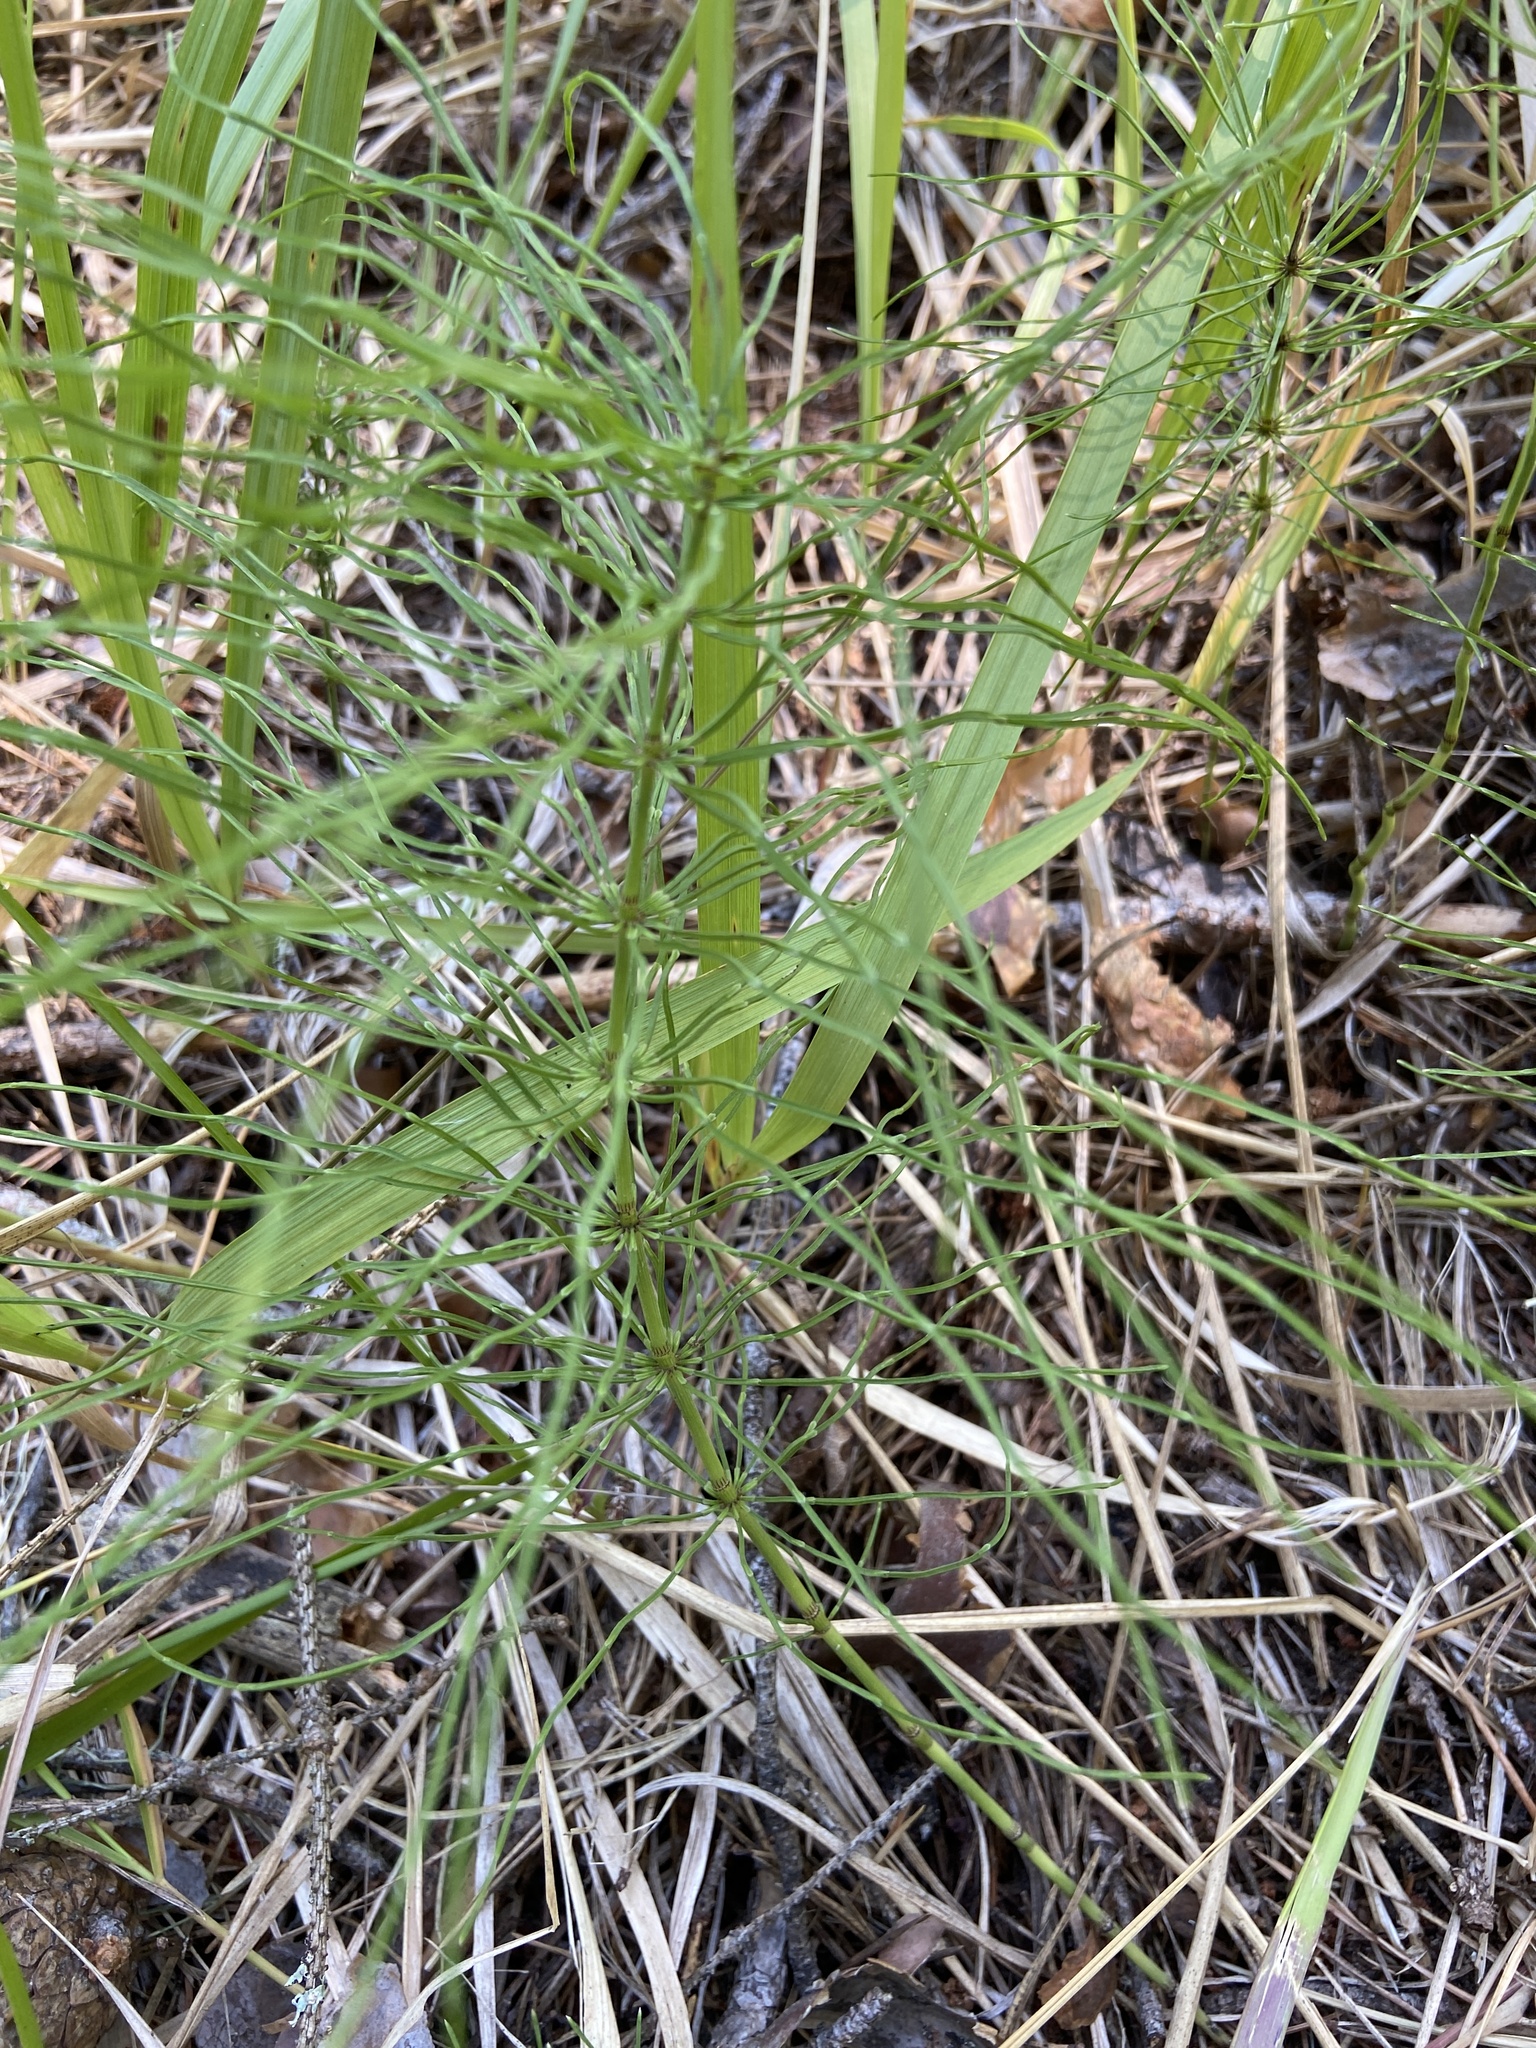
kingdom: Plantae
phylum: Tracheophyta
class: Polypodiopsida
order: Equisetales
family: Equisetaceae
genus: Equisetum
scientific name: Equisetum pratense
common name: Meadow horsetail
